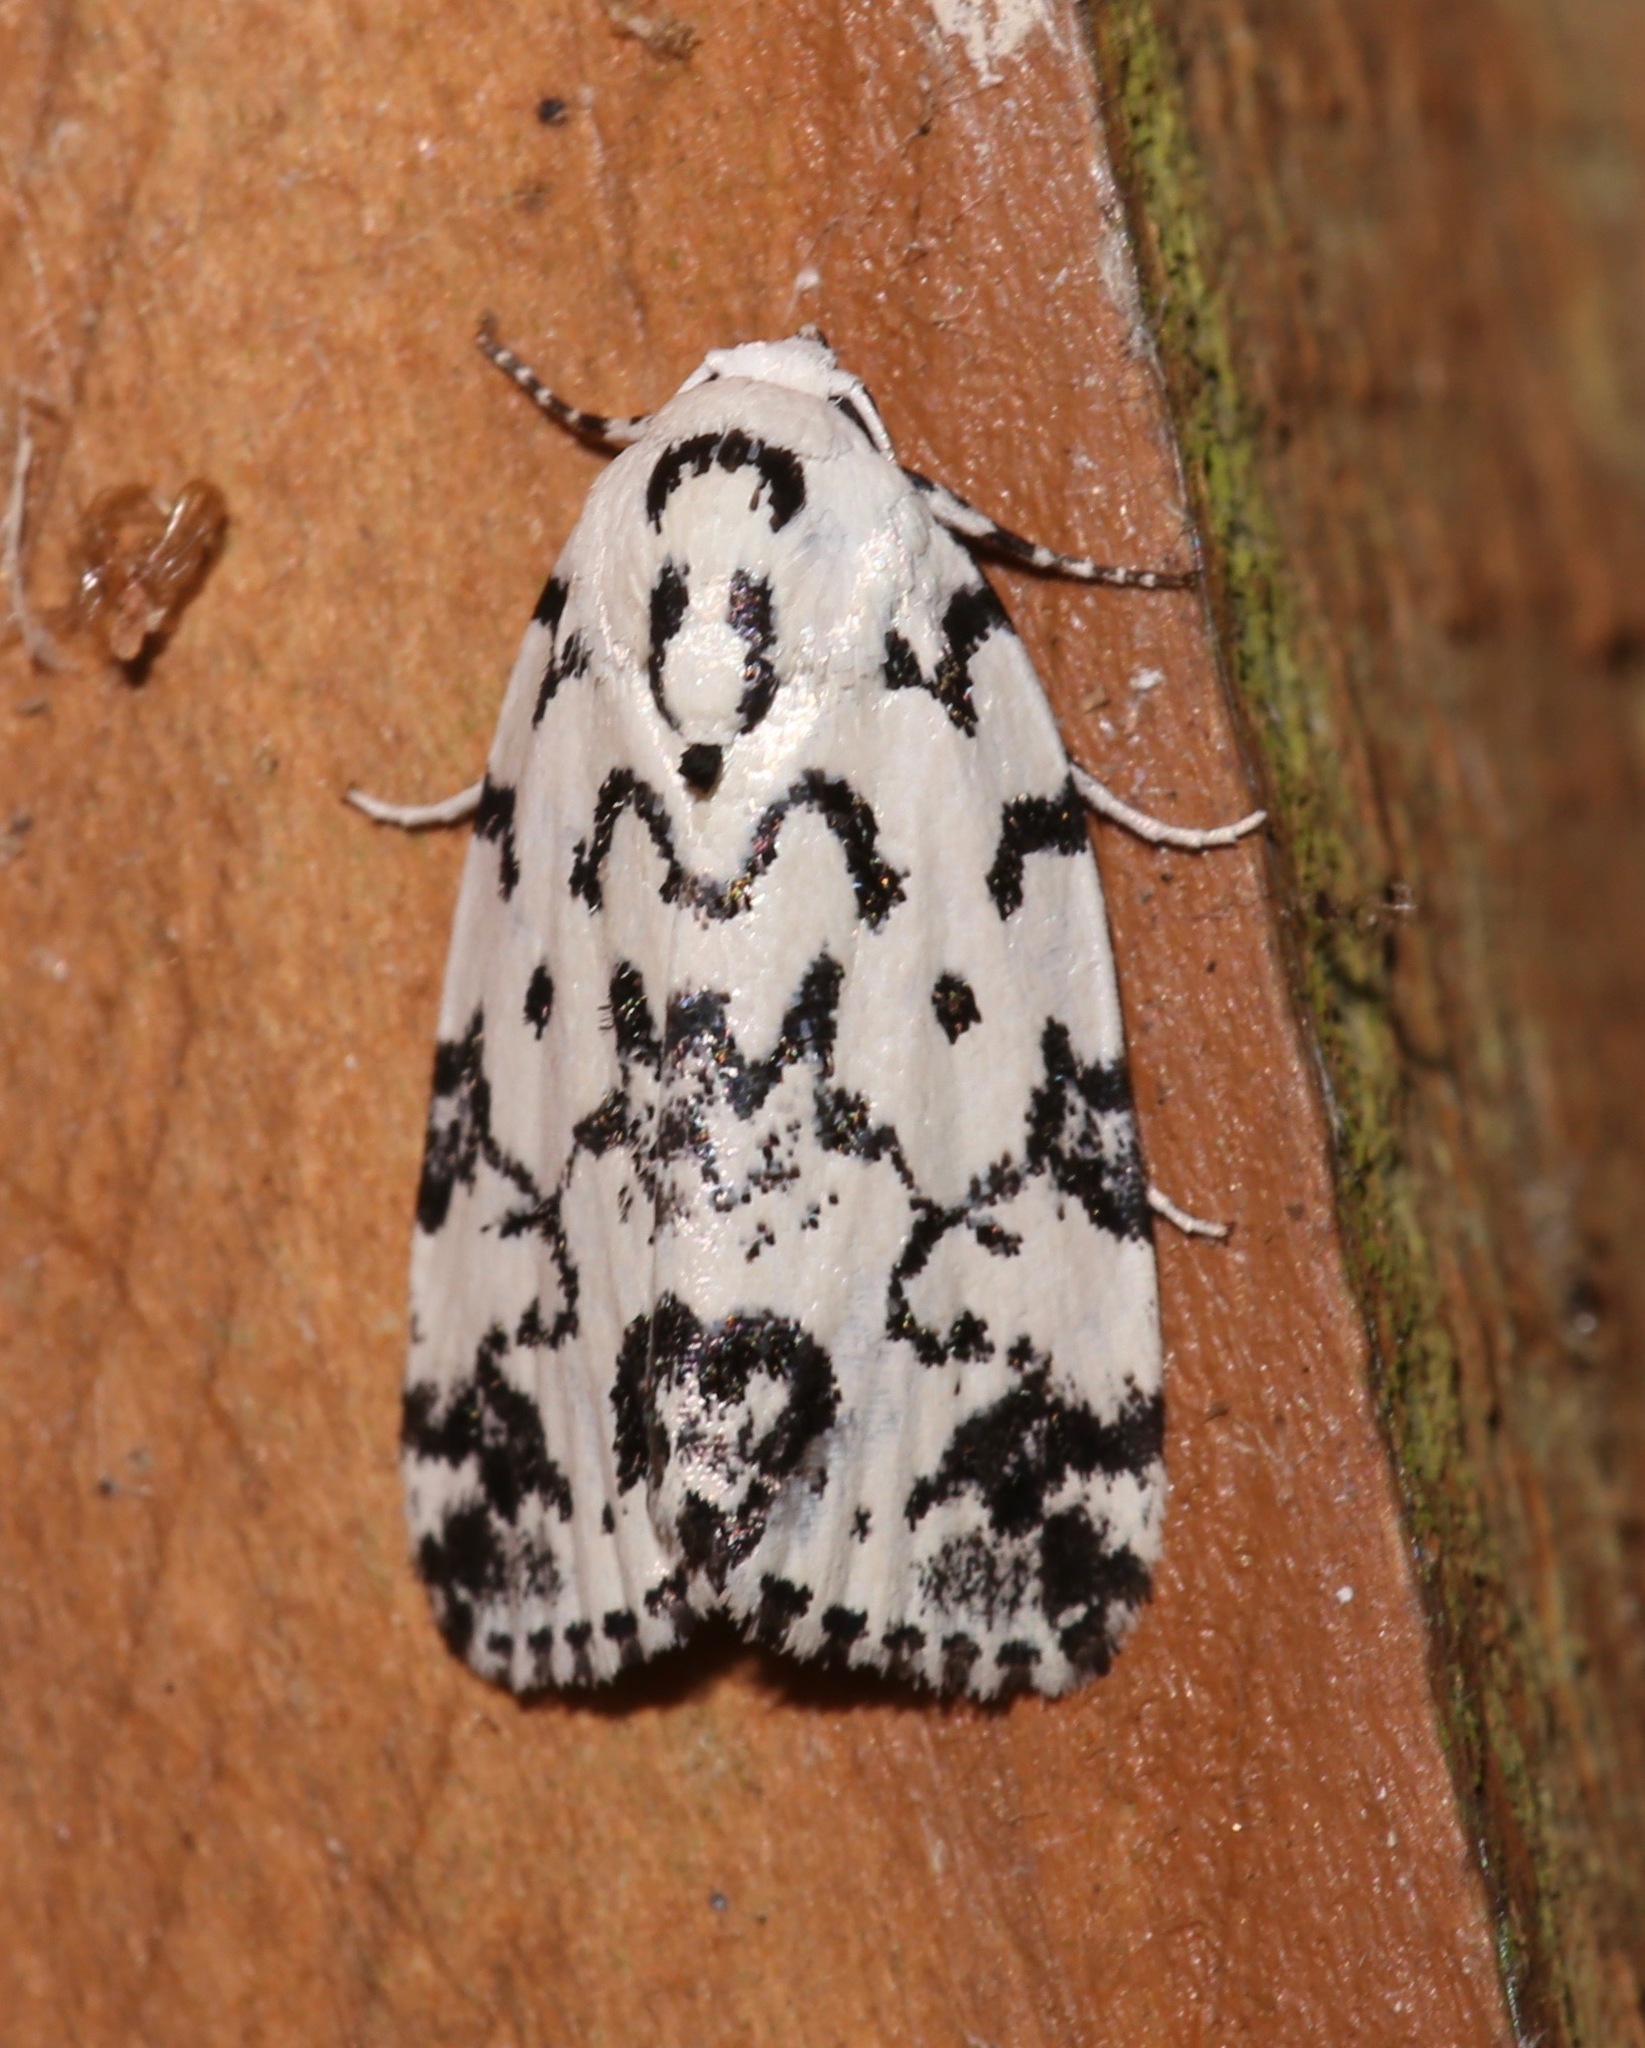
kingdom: Animalia
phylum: Arthropoda
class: Insecta
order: Lepidoptera
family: Noctuidae
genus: Polygrammate
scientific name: Polygrammate hebraeicum
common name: Hebrew moth
